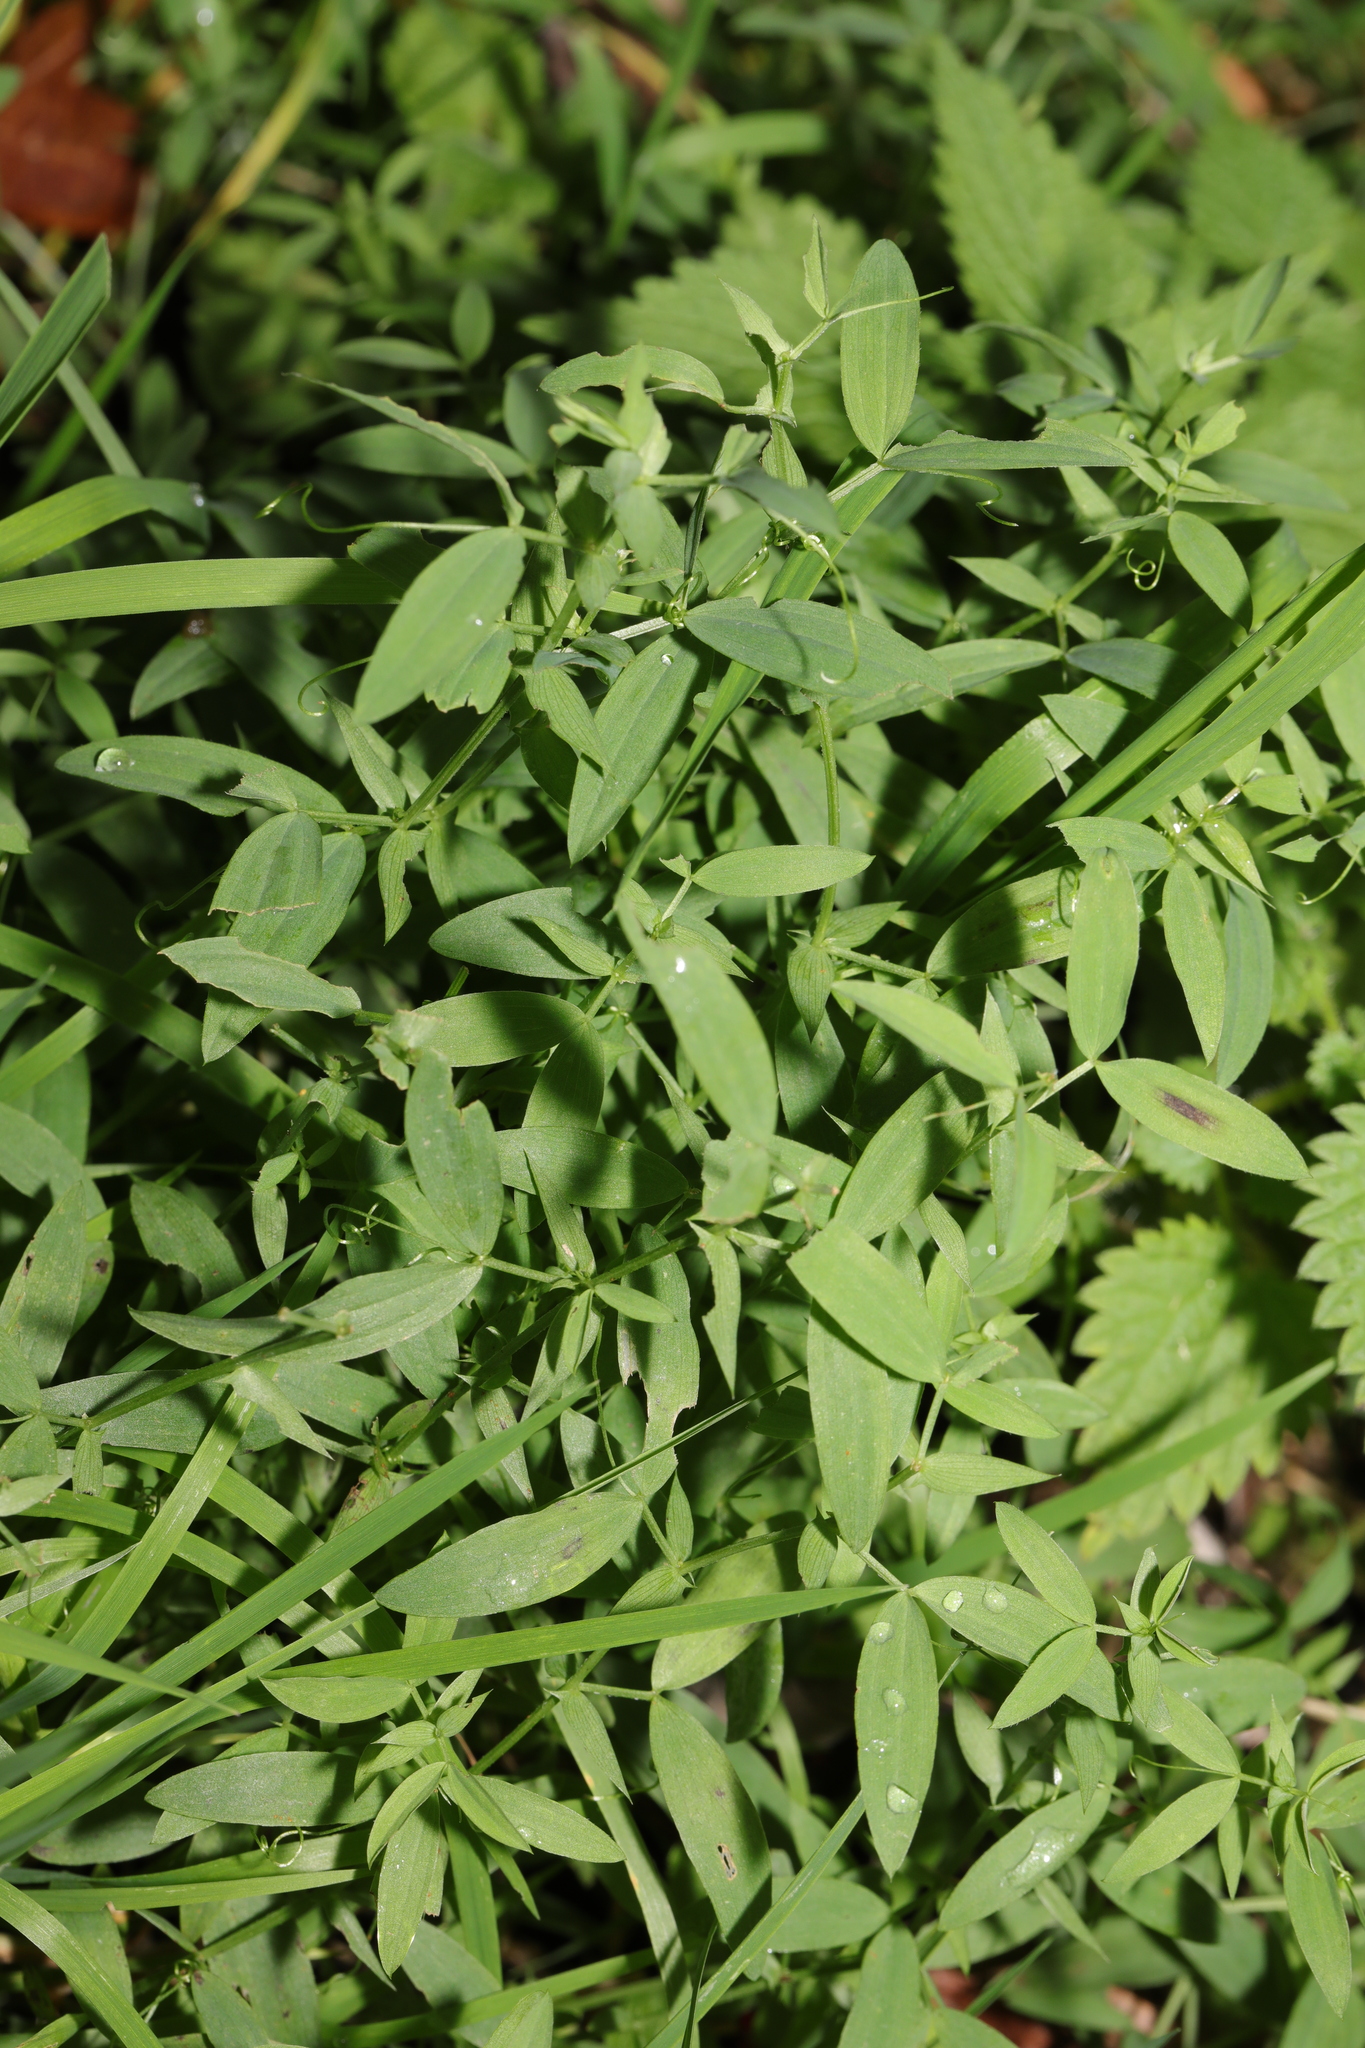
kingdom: Plantae
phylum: Tracheophyta
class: Magnoliopsida
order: Fabales
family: Fabaceae
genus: Lathyrus
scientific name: Lathyrus pratensis
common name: Meadow vetchling
